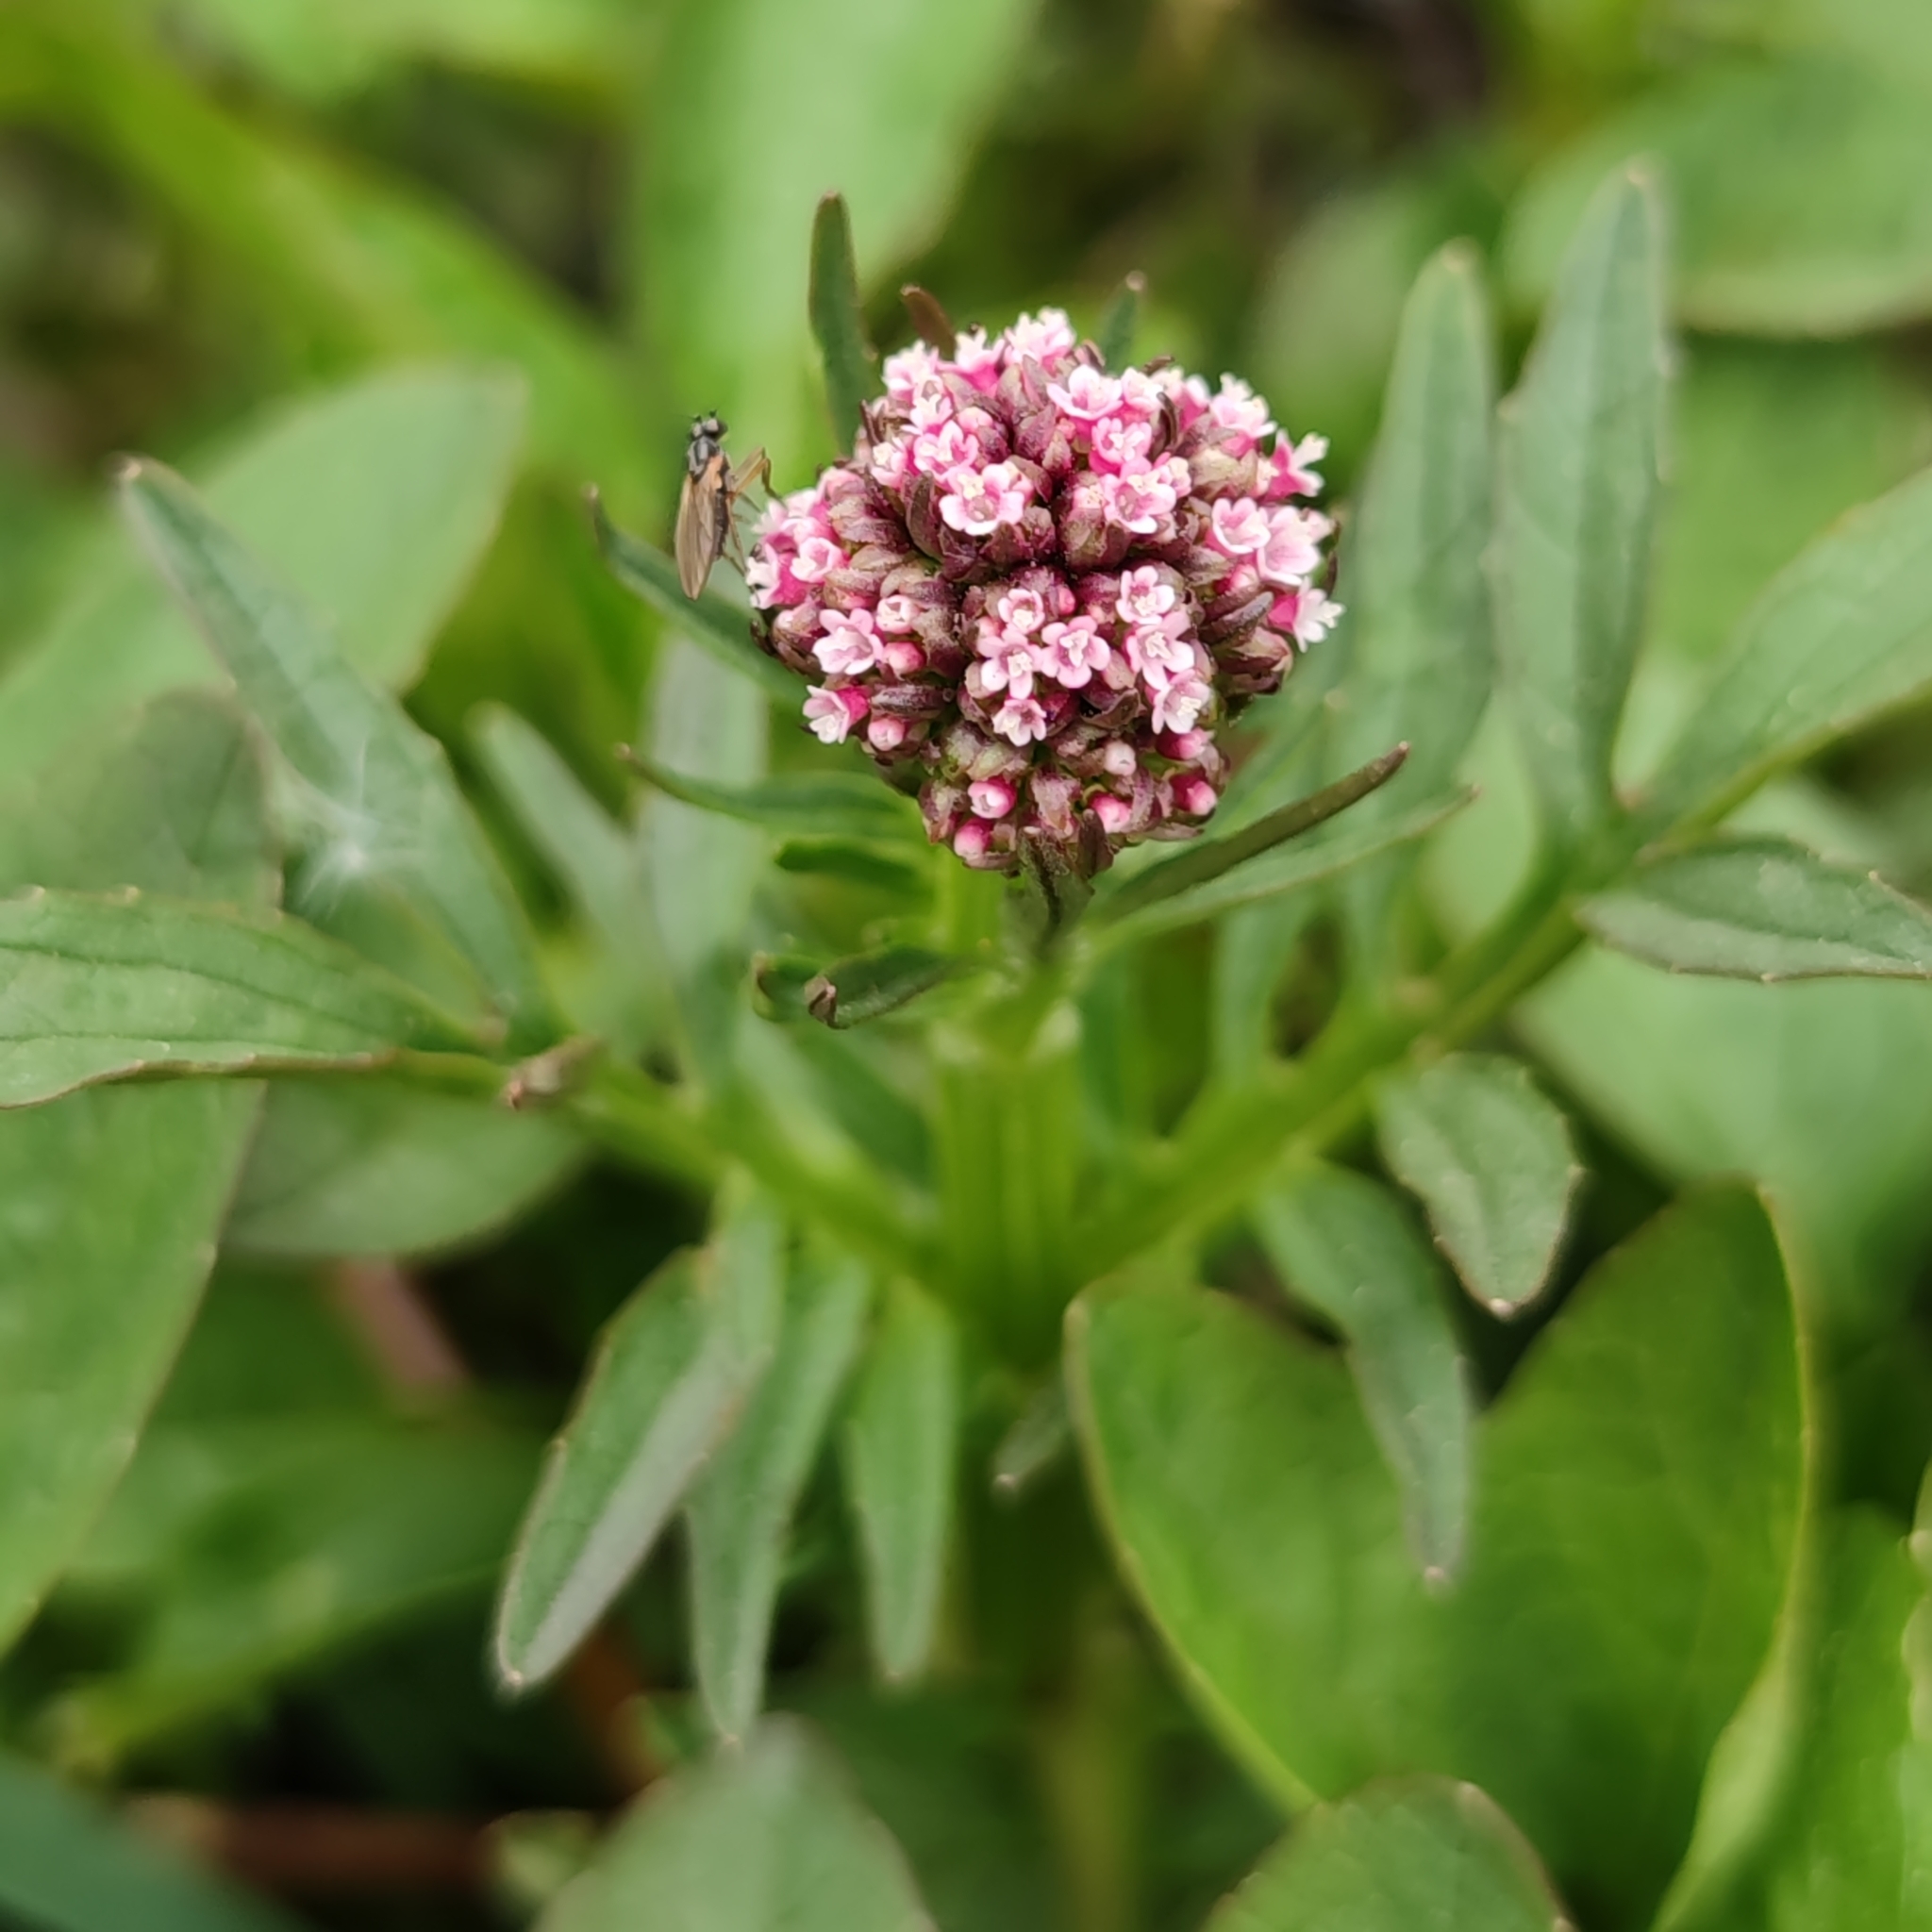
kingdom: Plantae
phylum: Tracheophyta
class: Magnoliopsida
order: Dipsacales
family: Caprifoliaceae
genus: Valeriana
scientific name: Valeriana dioica
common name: Marsh valerian
